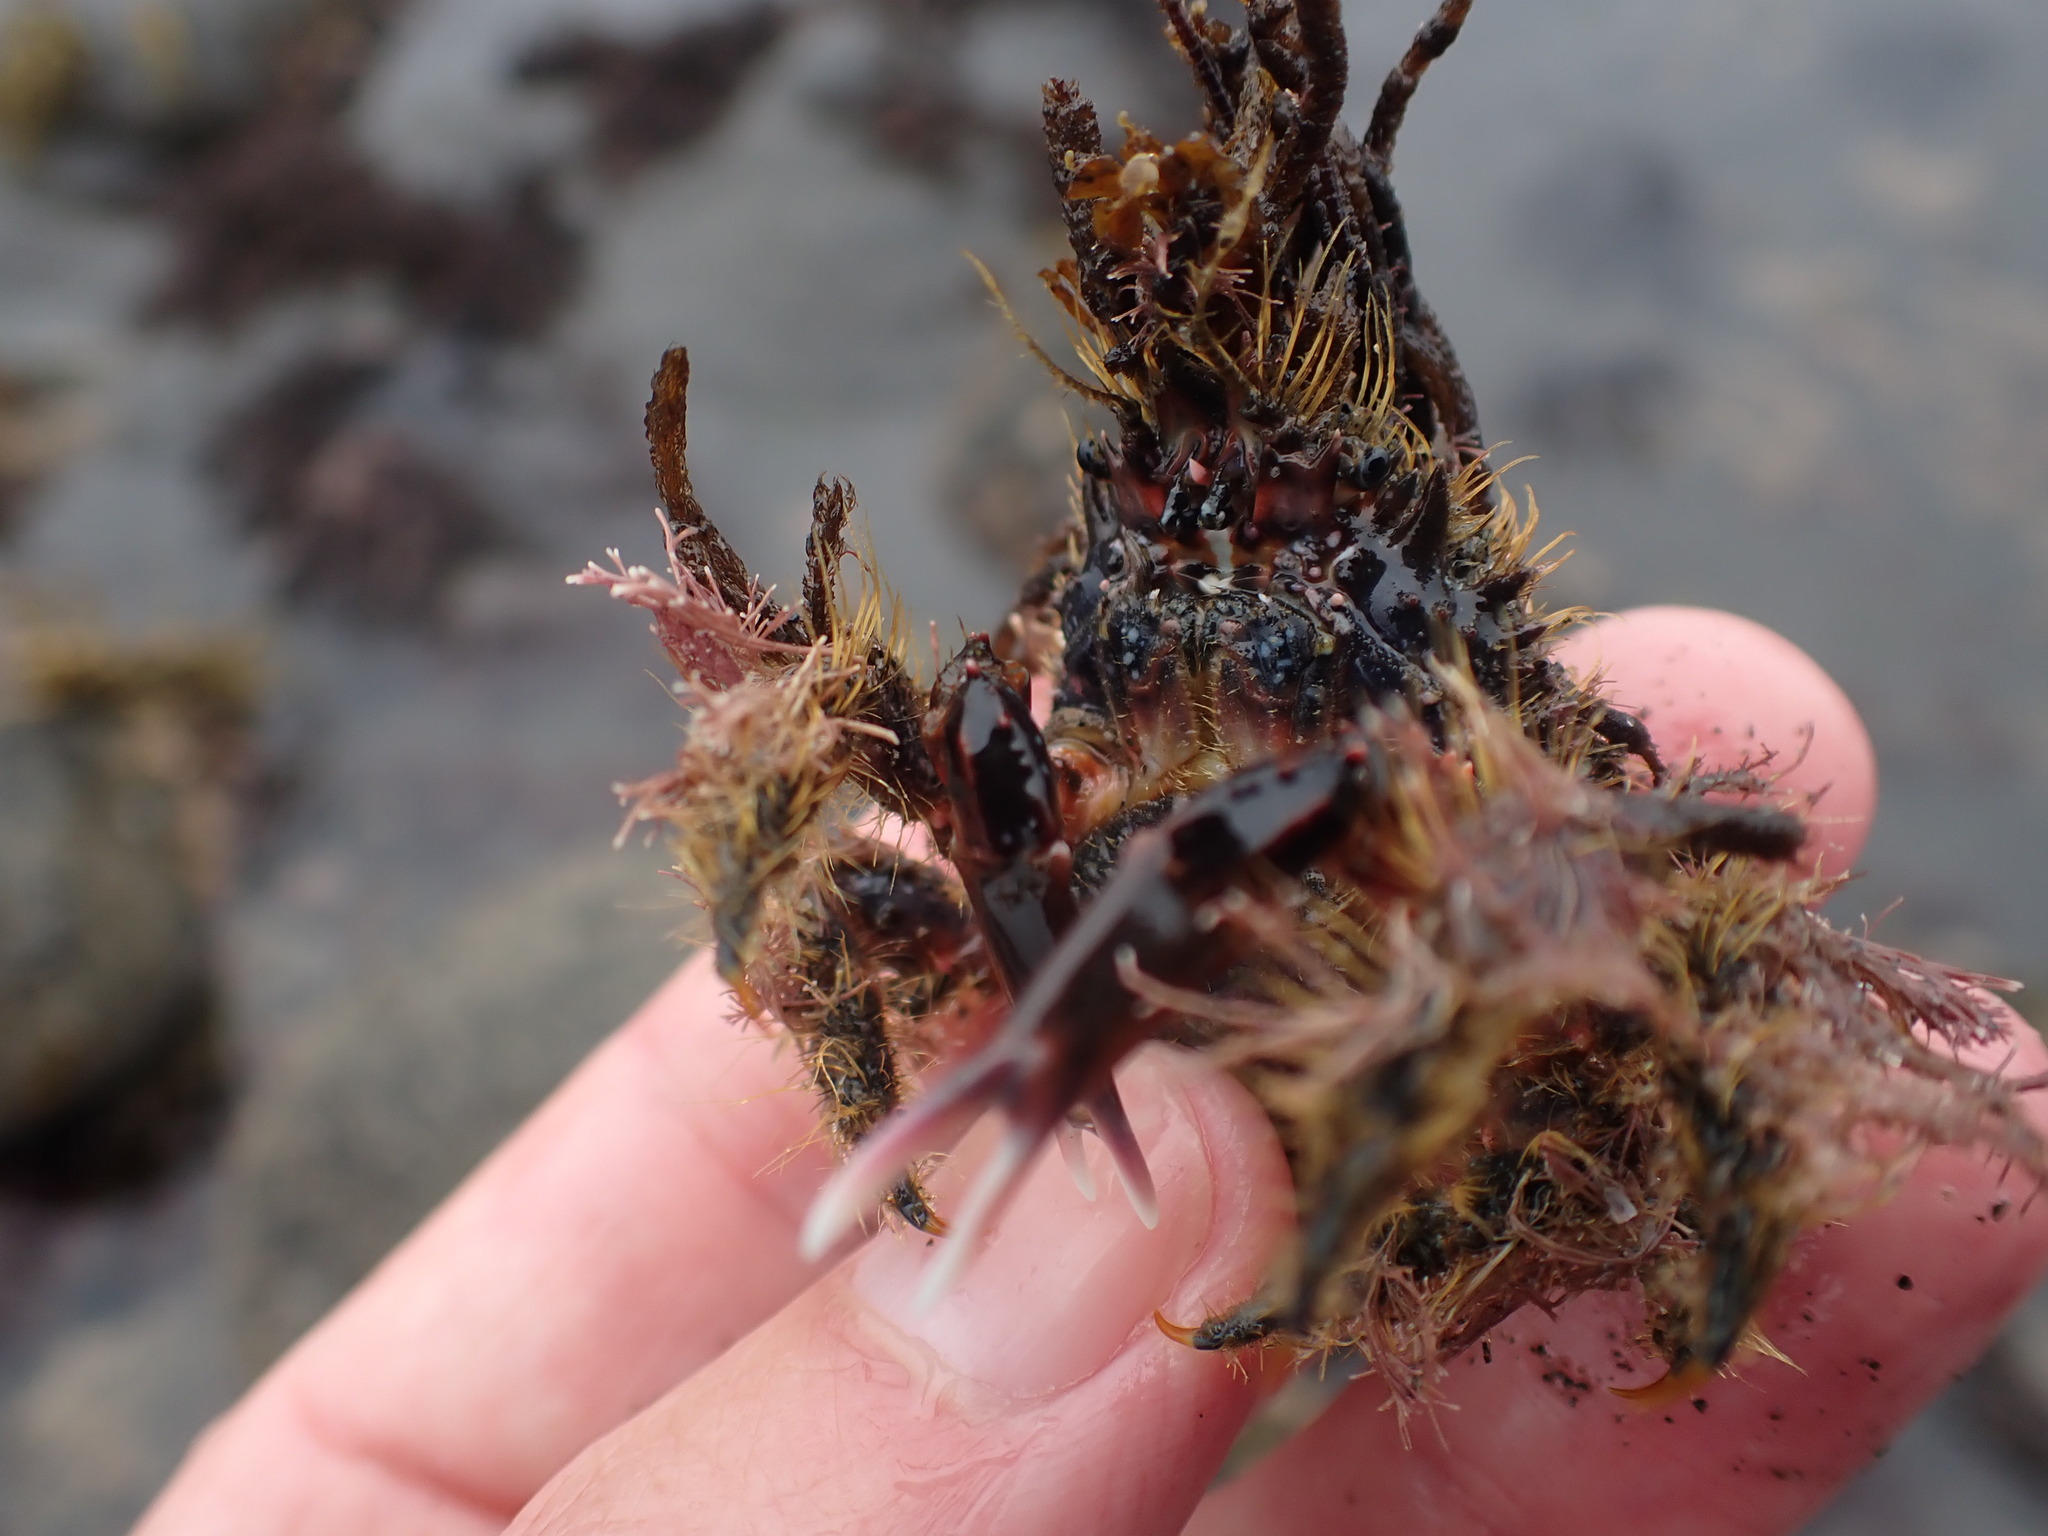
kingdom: Animalia
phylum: Arthropoda
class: Malacostraca
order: Decapoda
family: Majidae
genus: Notomithrax
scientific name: Notomithrax ursus
